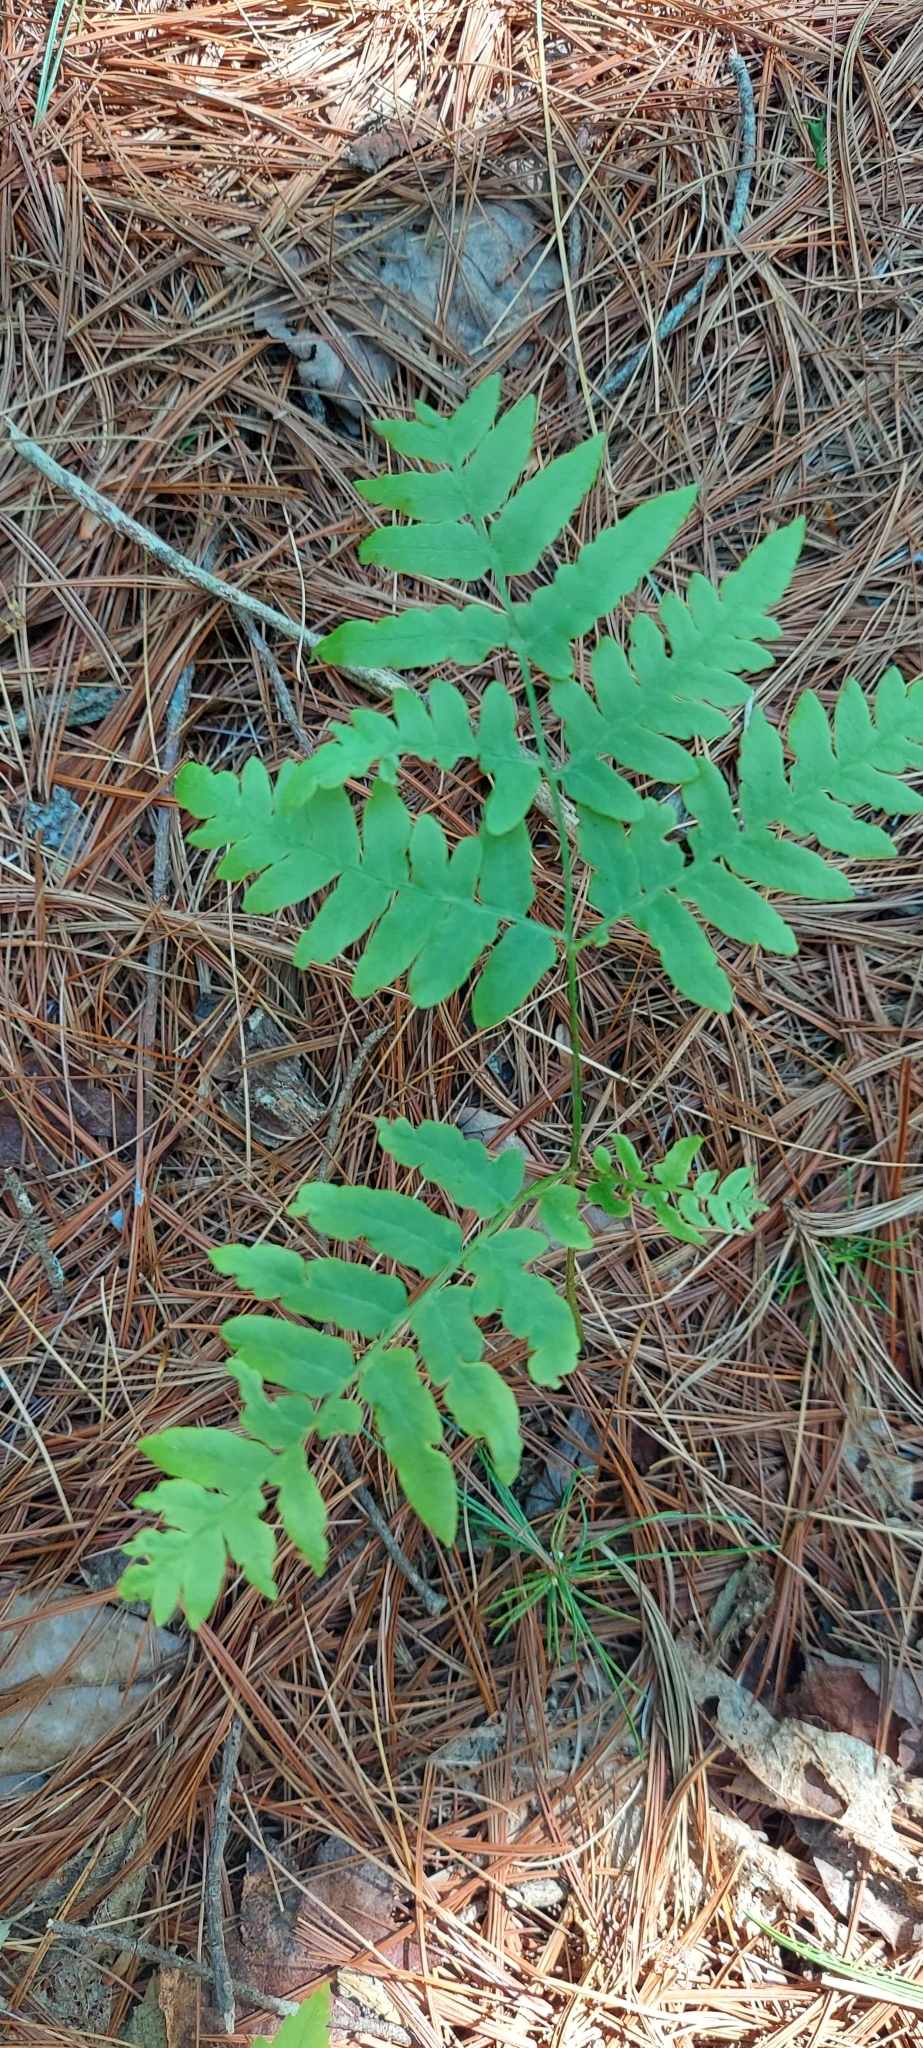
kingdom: Plantae
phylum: Tracheophyta
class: Polypodiopsida
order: Polypodiales
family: Dennstaedtiaceae
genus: Pteridium
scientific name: Pteridium aquilinum
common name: Bracken
